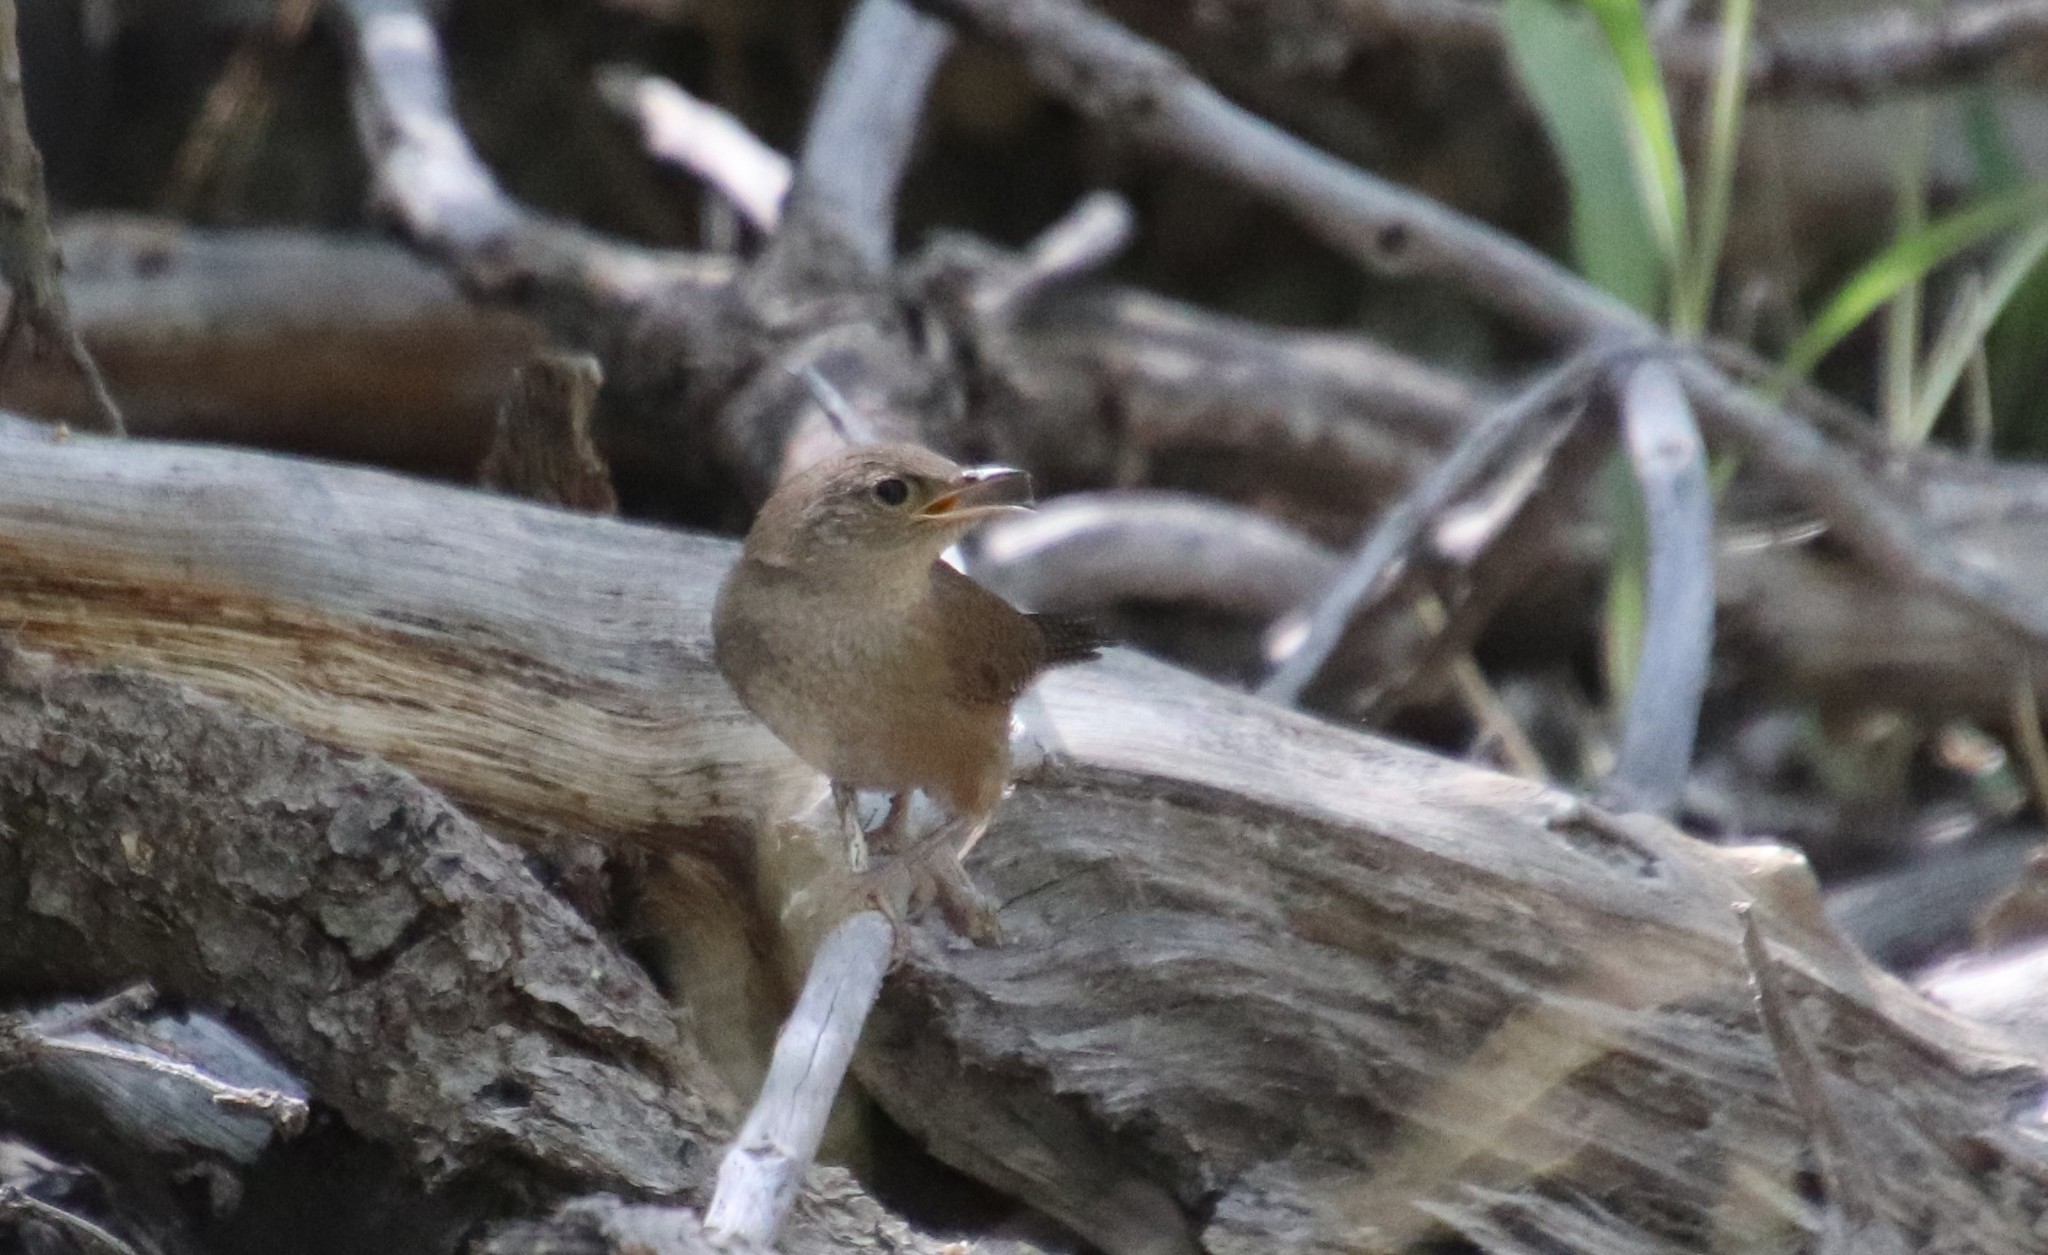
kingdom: Animalia
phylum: Chordata
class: Aves
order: Passeriformes
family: Troglodytidae
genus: Troglodytes
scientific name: Troglodytes aedon
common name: House wren
